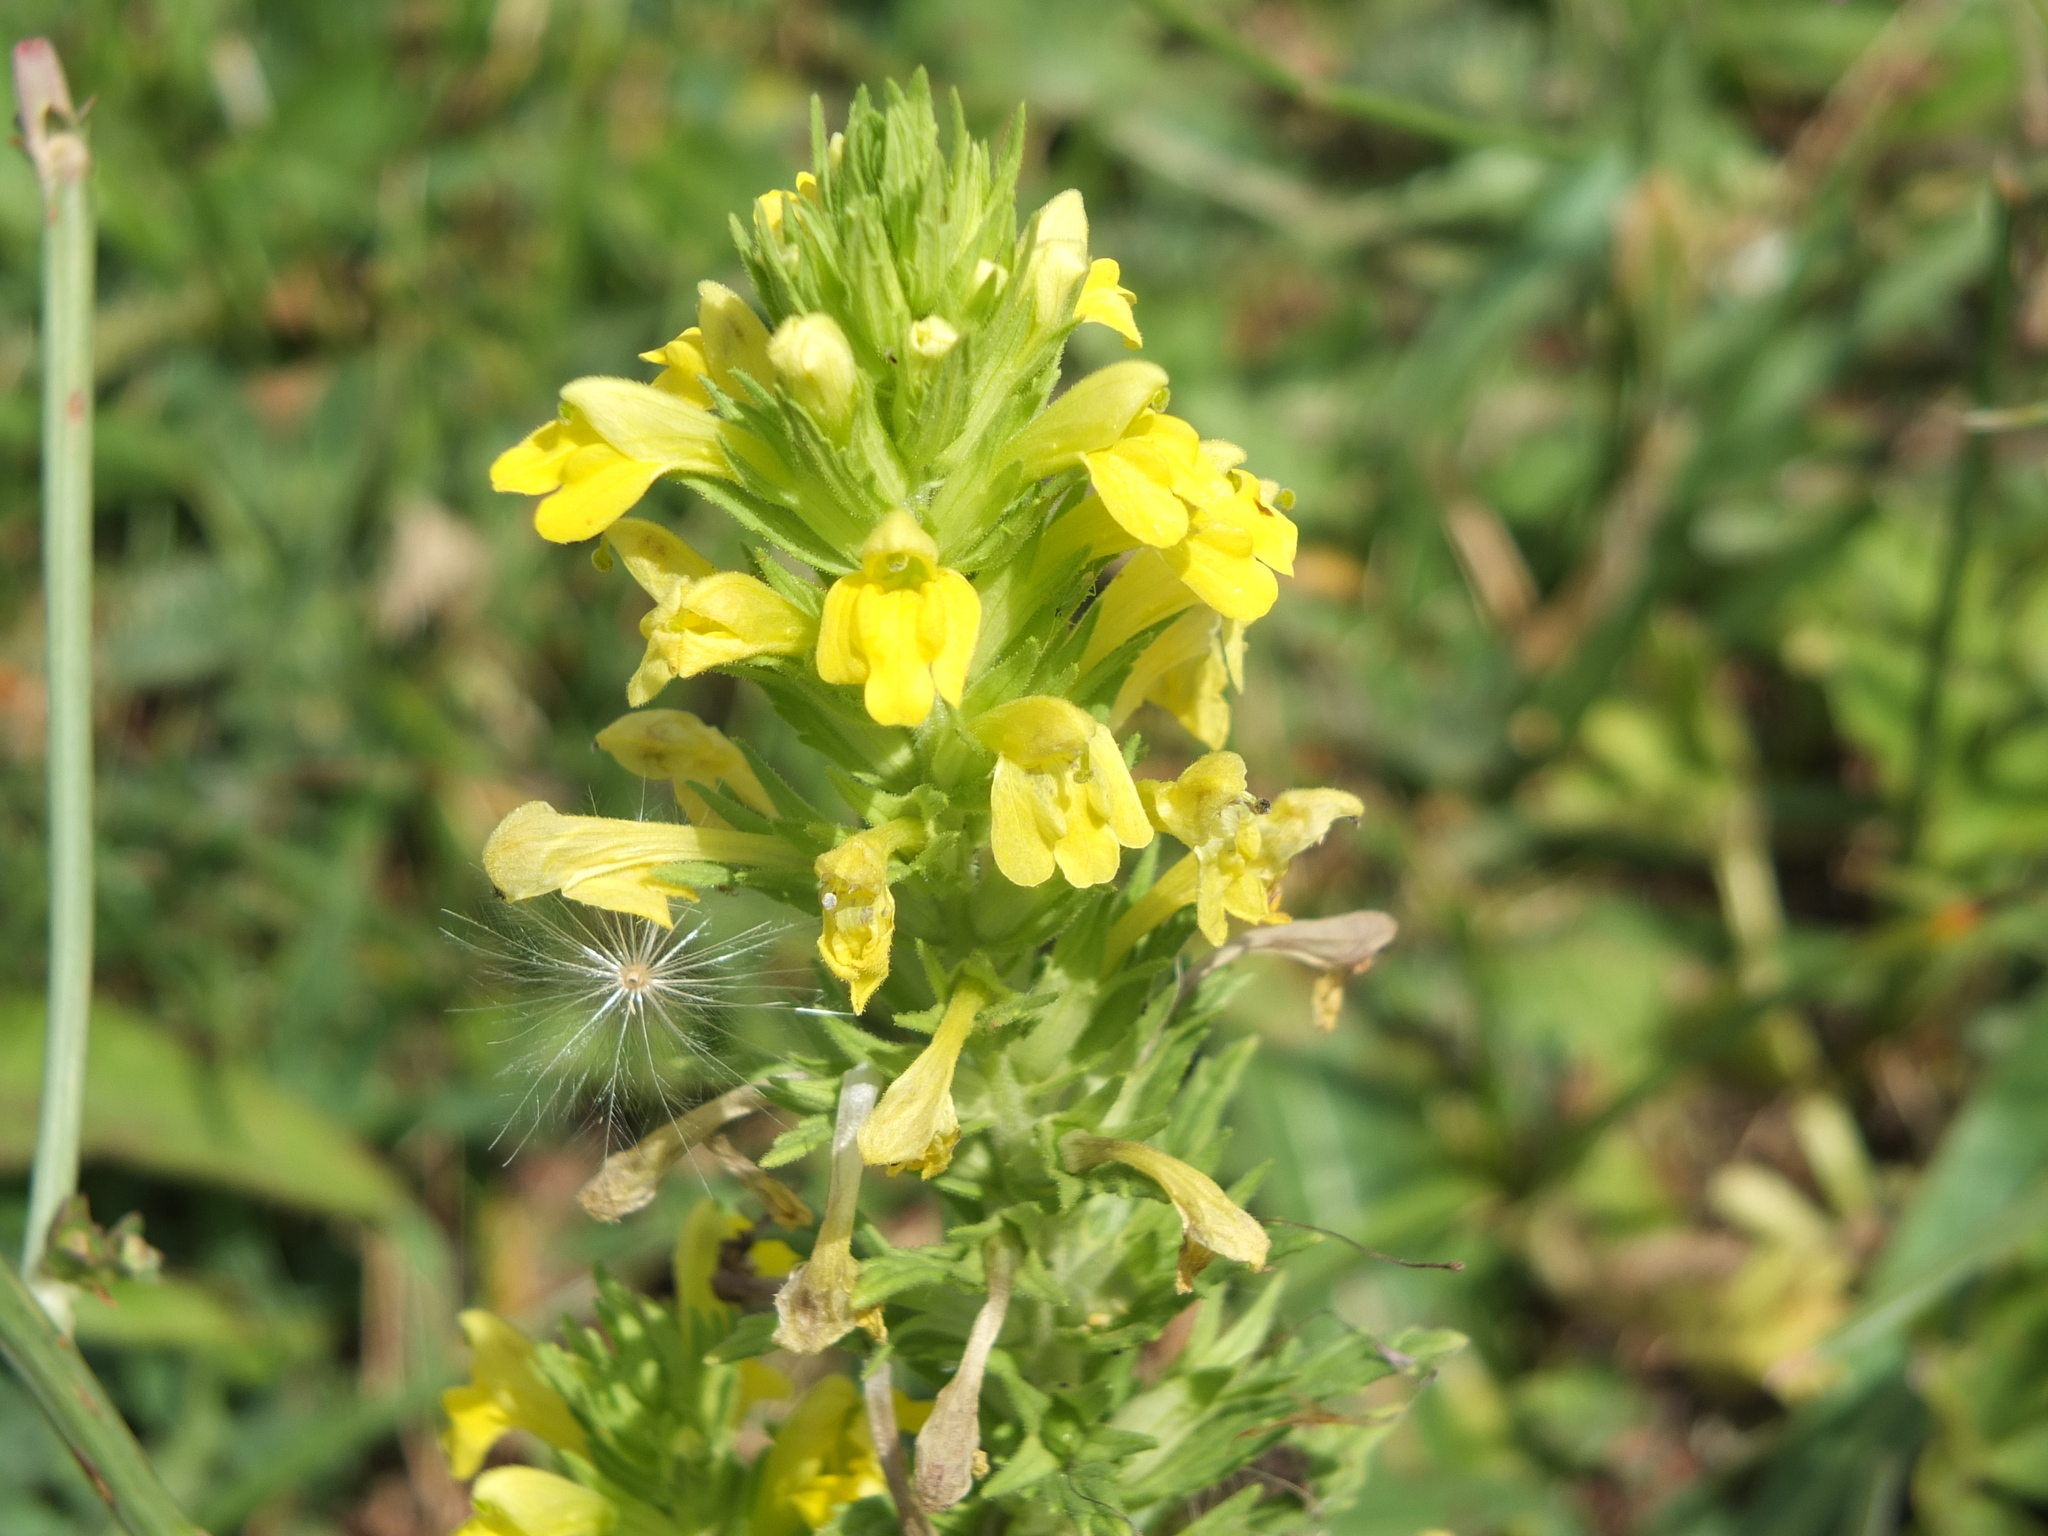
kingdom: Plantae
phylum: Tracheophyta
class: Magnoliopsida
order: Lamiales
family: Orobanchaceae
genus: Bellardia
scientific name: Bellardia viscosa
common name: Sticky parentucellia
